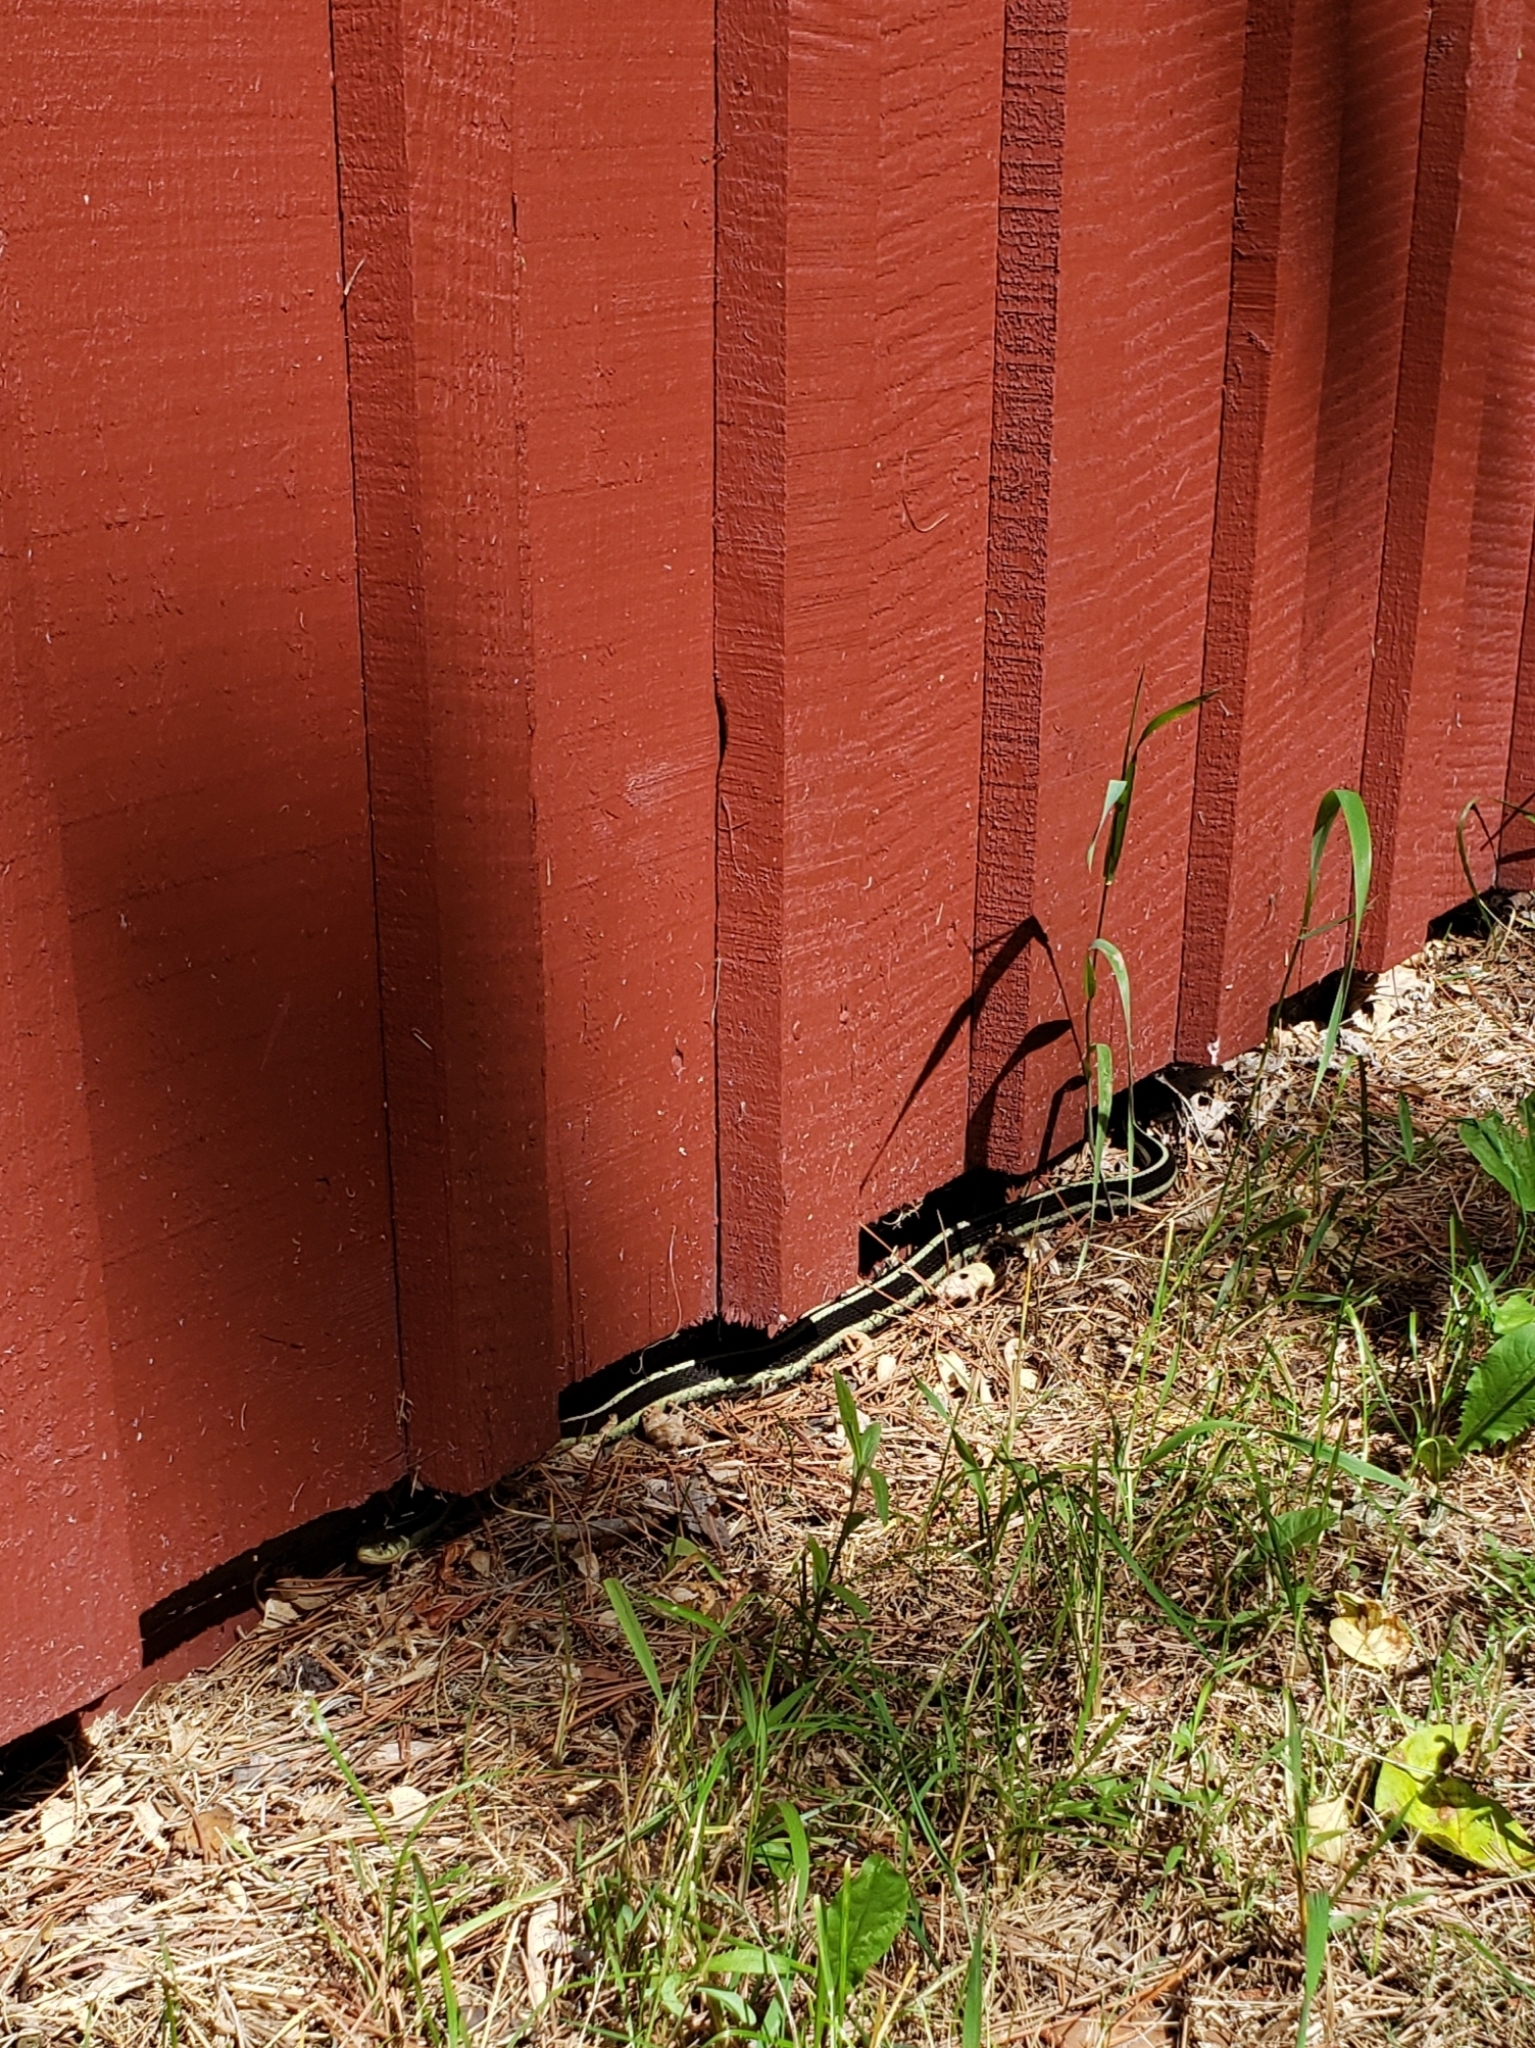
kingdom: Animalia
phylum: Chordata
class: Squamata
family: Colubridae
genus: Thamnophis
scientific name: Thamnophis sirtalis
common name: Common garter snake
